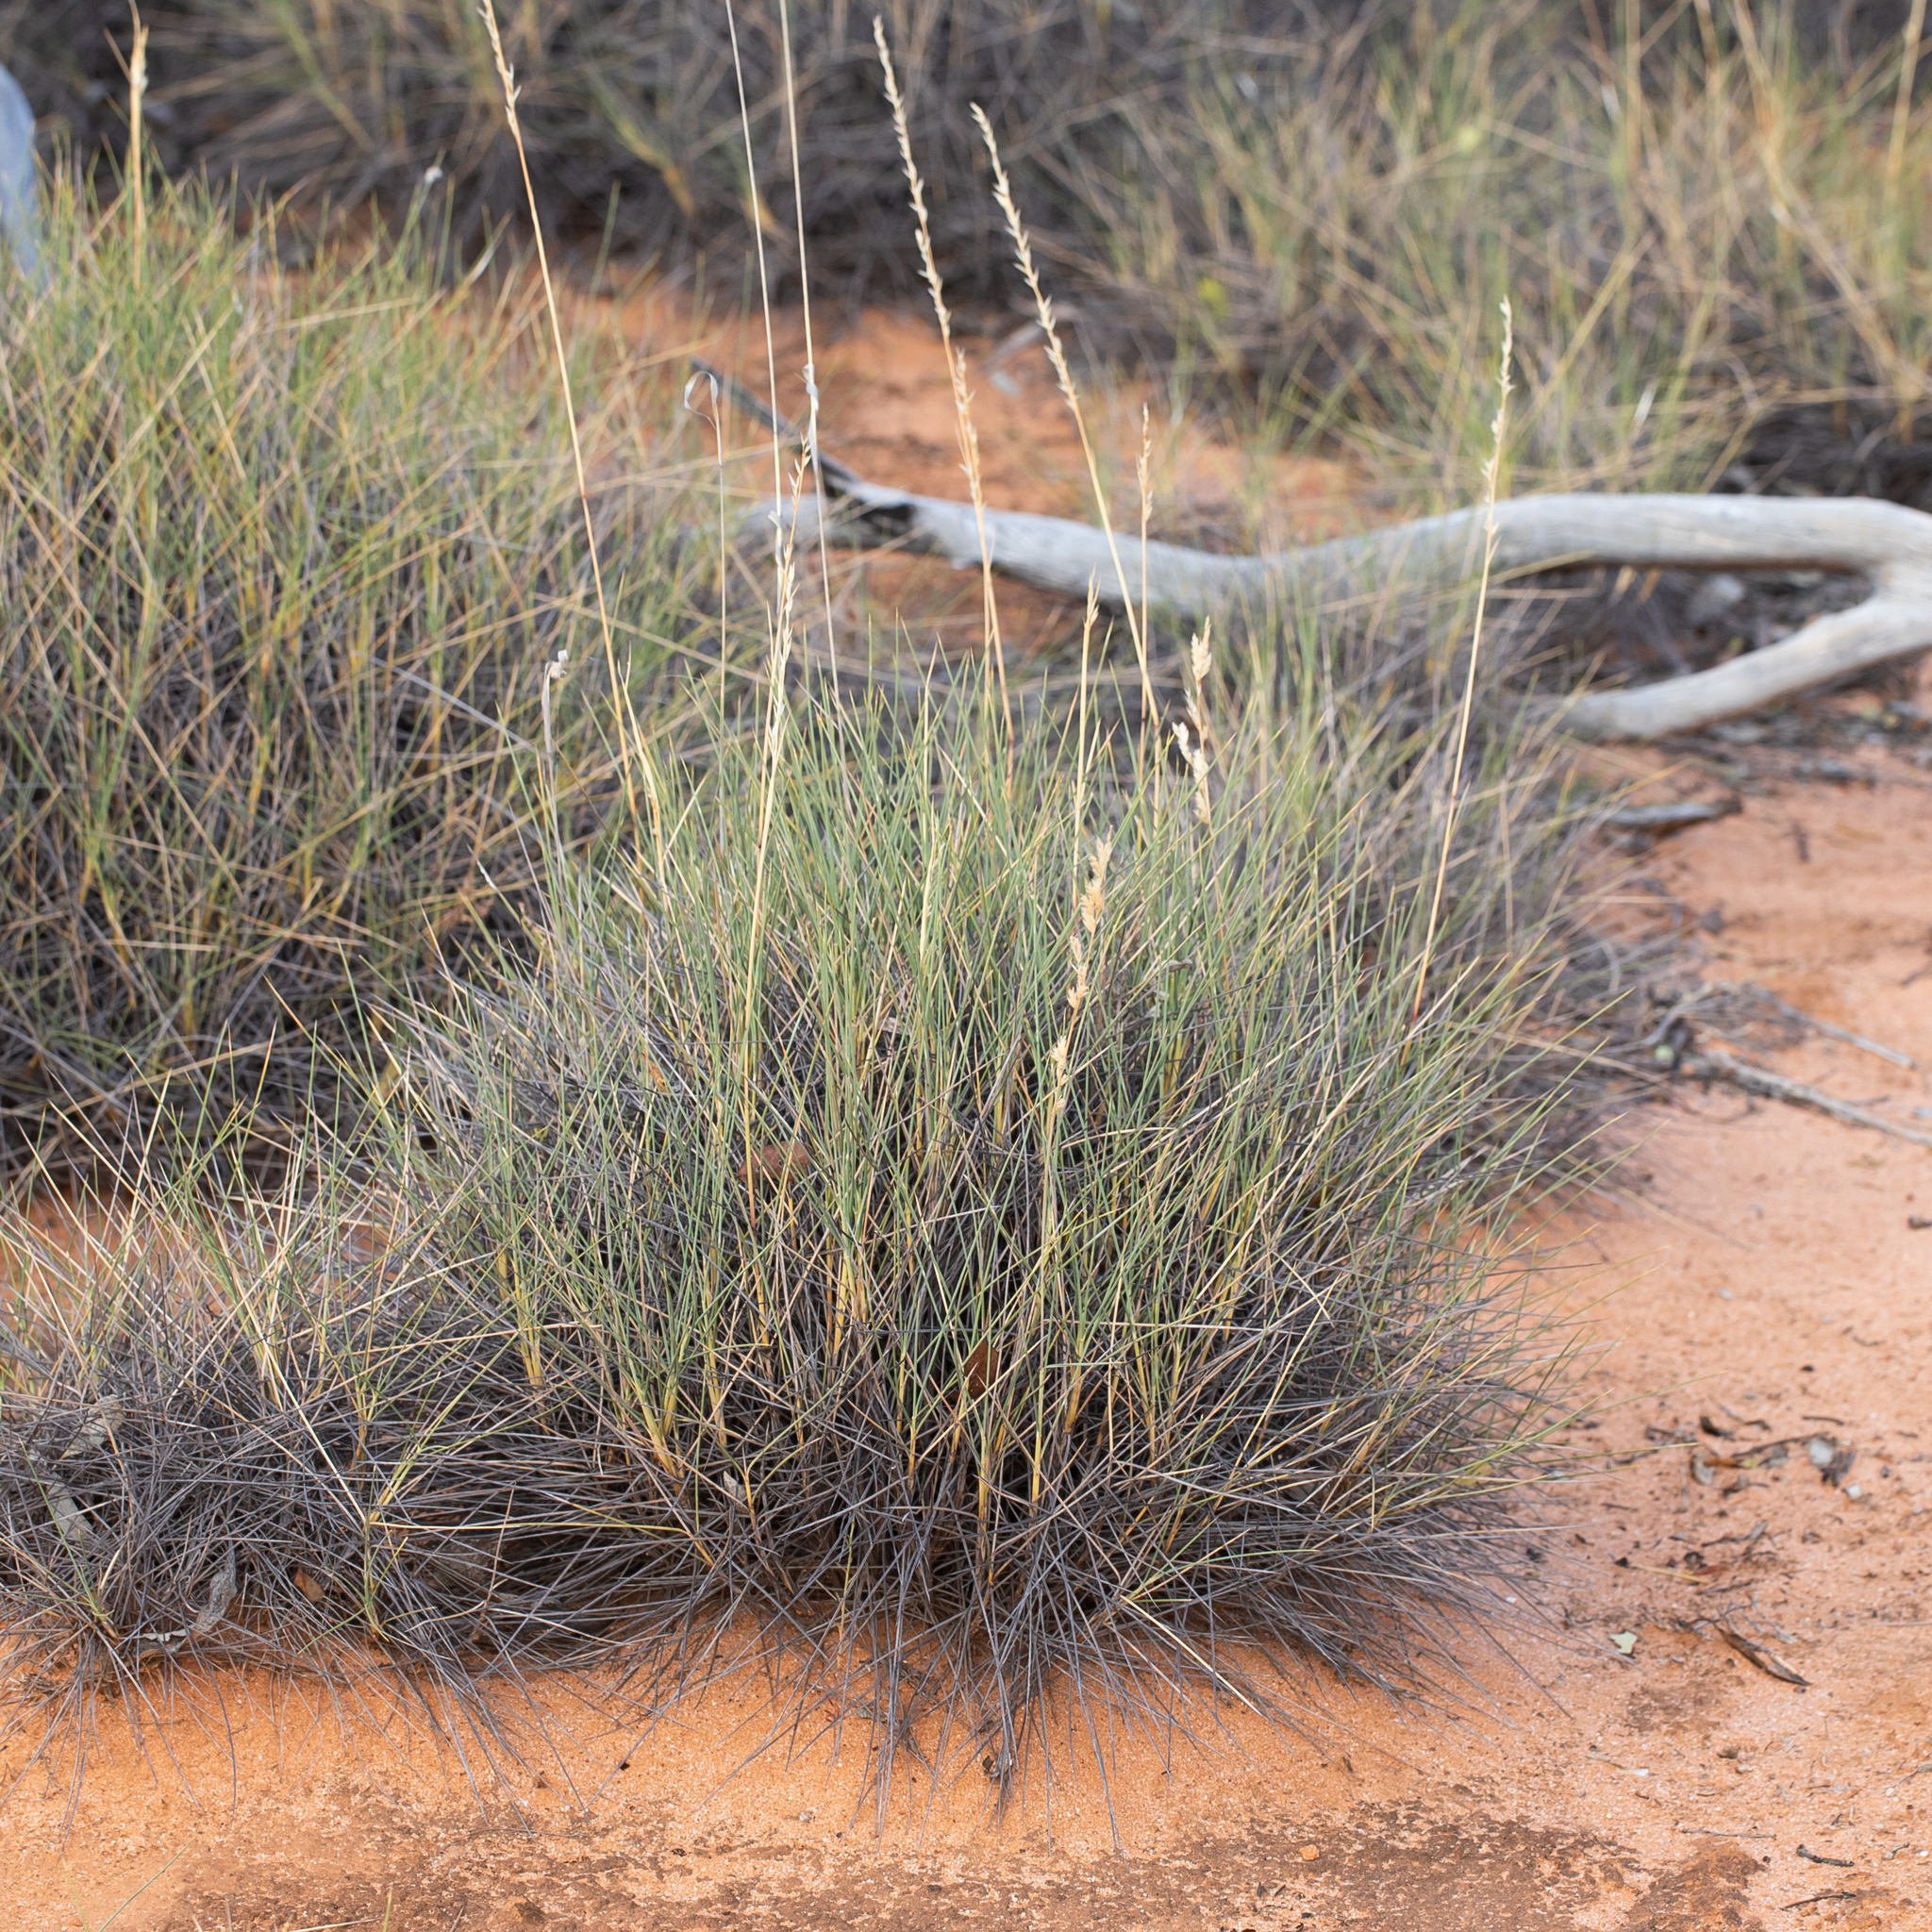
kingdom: Plantae
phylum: Tracheophyta
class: Liliopsida
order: Poales
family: Poaceae
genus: Triodia
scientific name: Triodia scariosa
